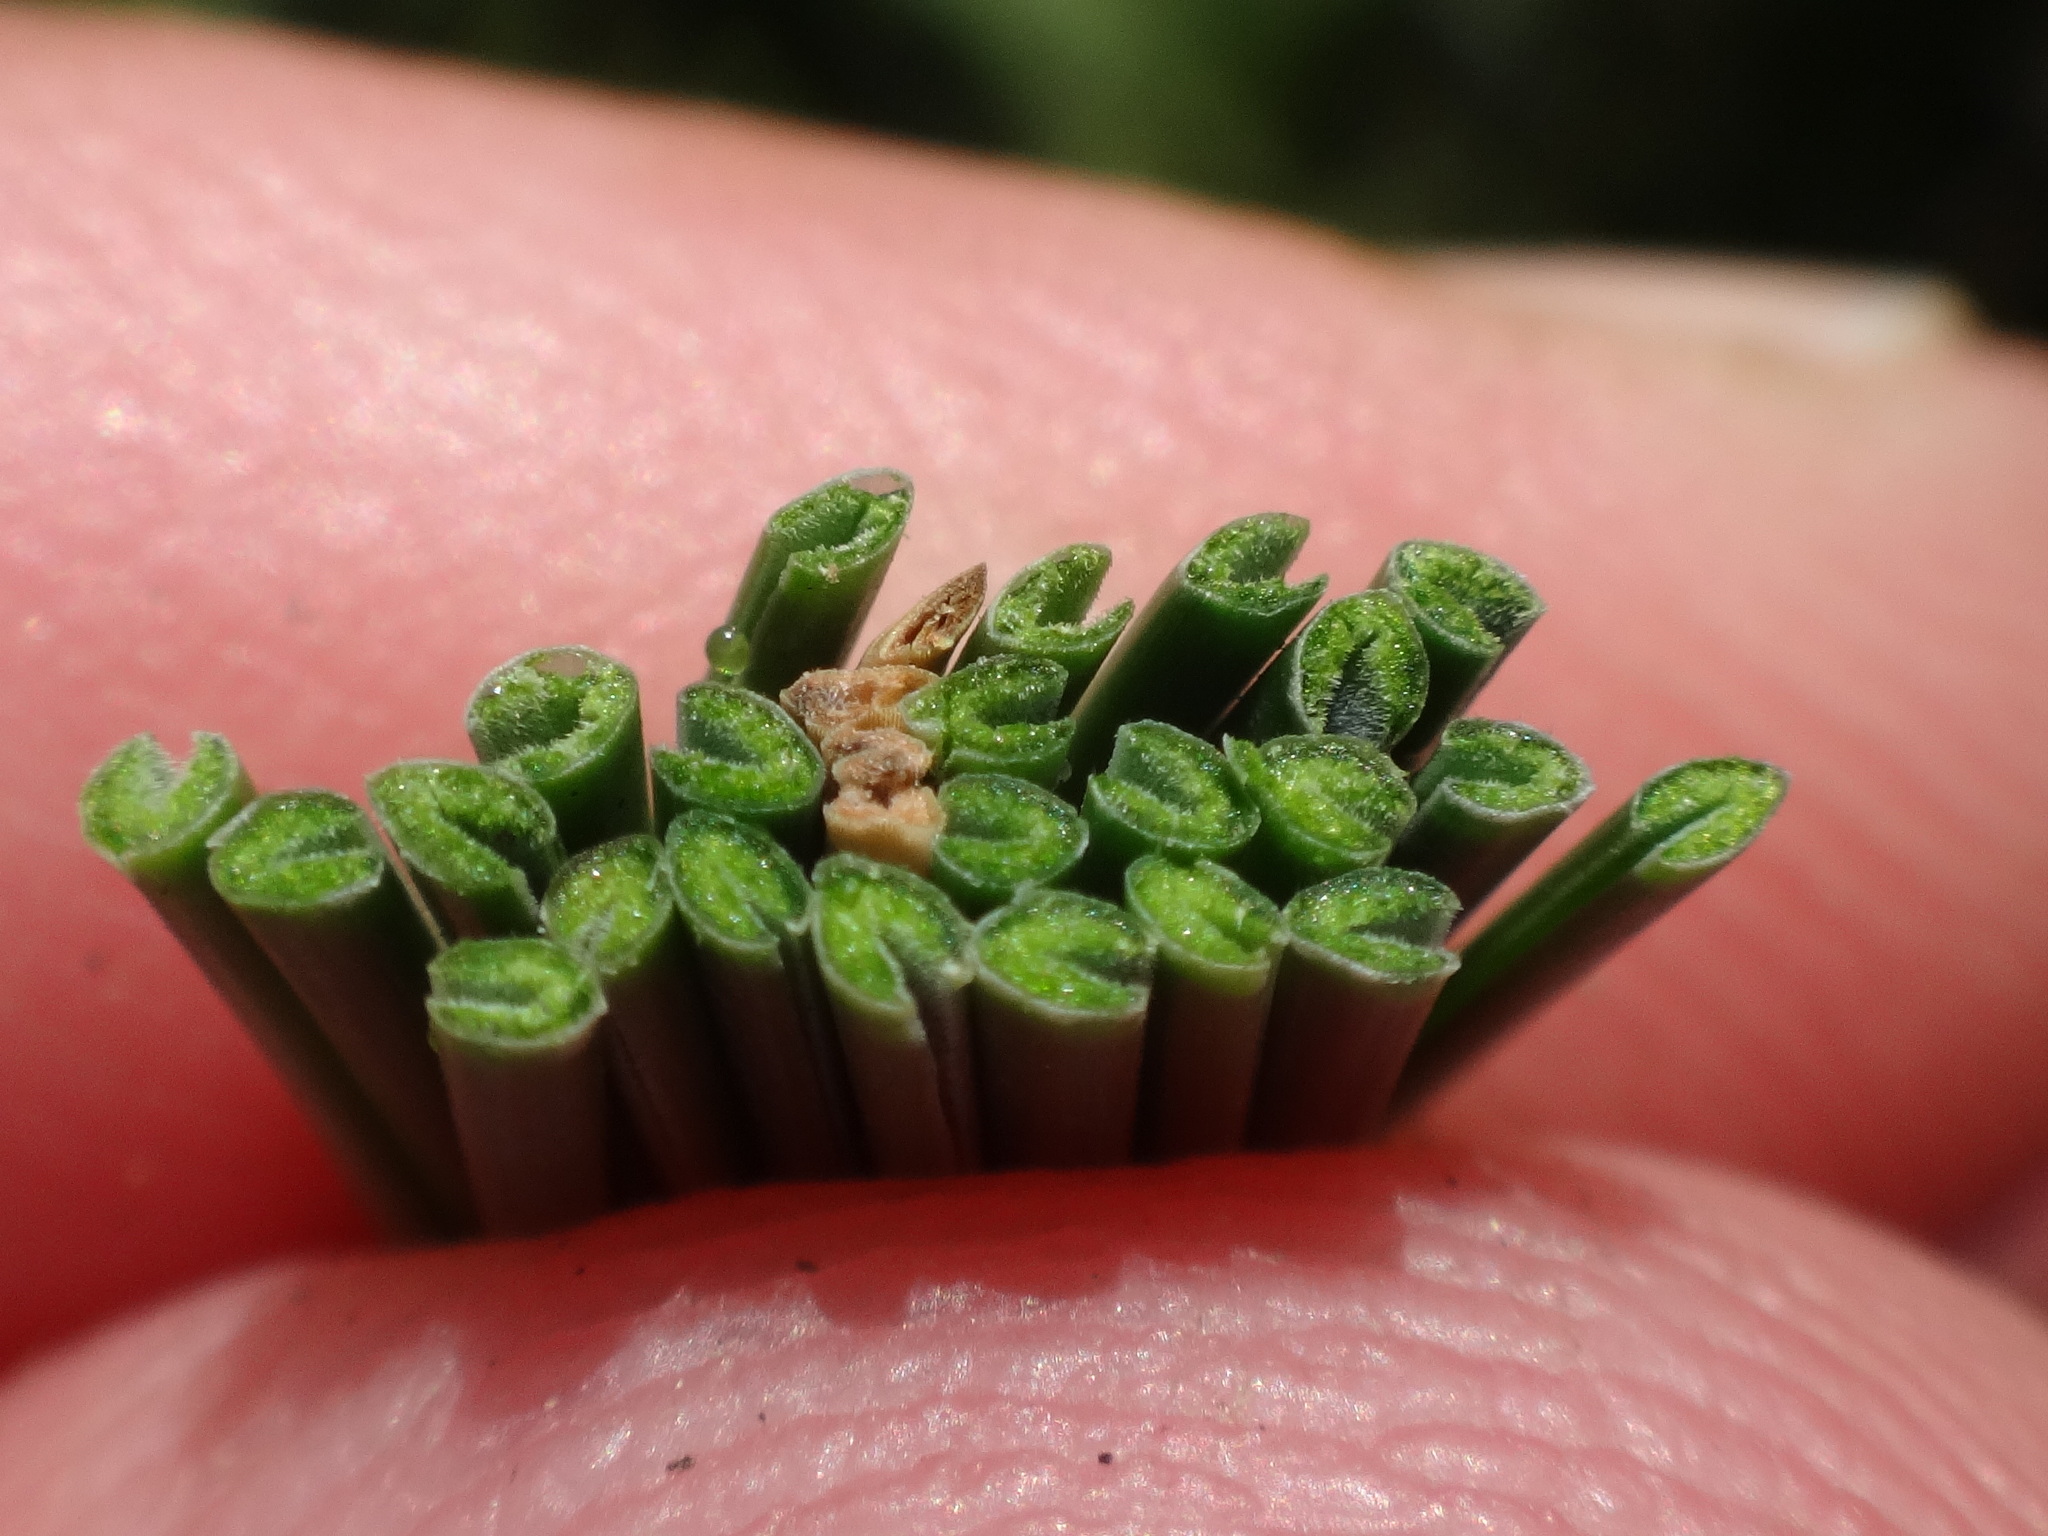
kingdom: Plantae
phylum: Tracheophyta
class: Liliopsida
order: Poales
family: Poaceae
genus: Festuca
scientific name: Festuca pallens
